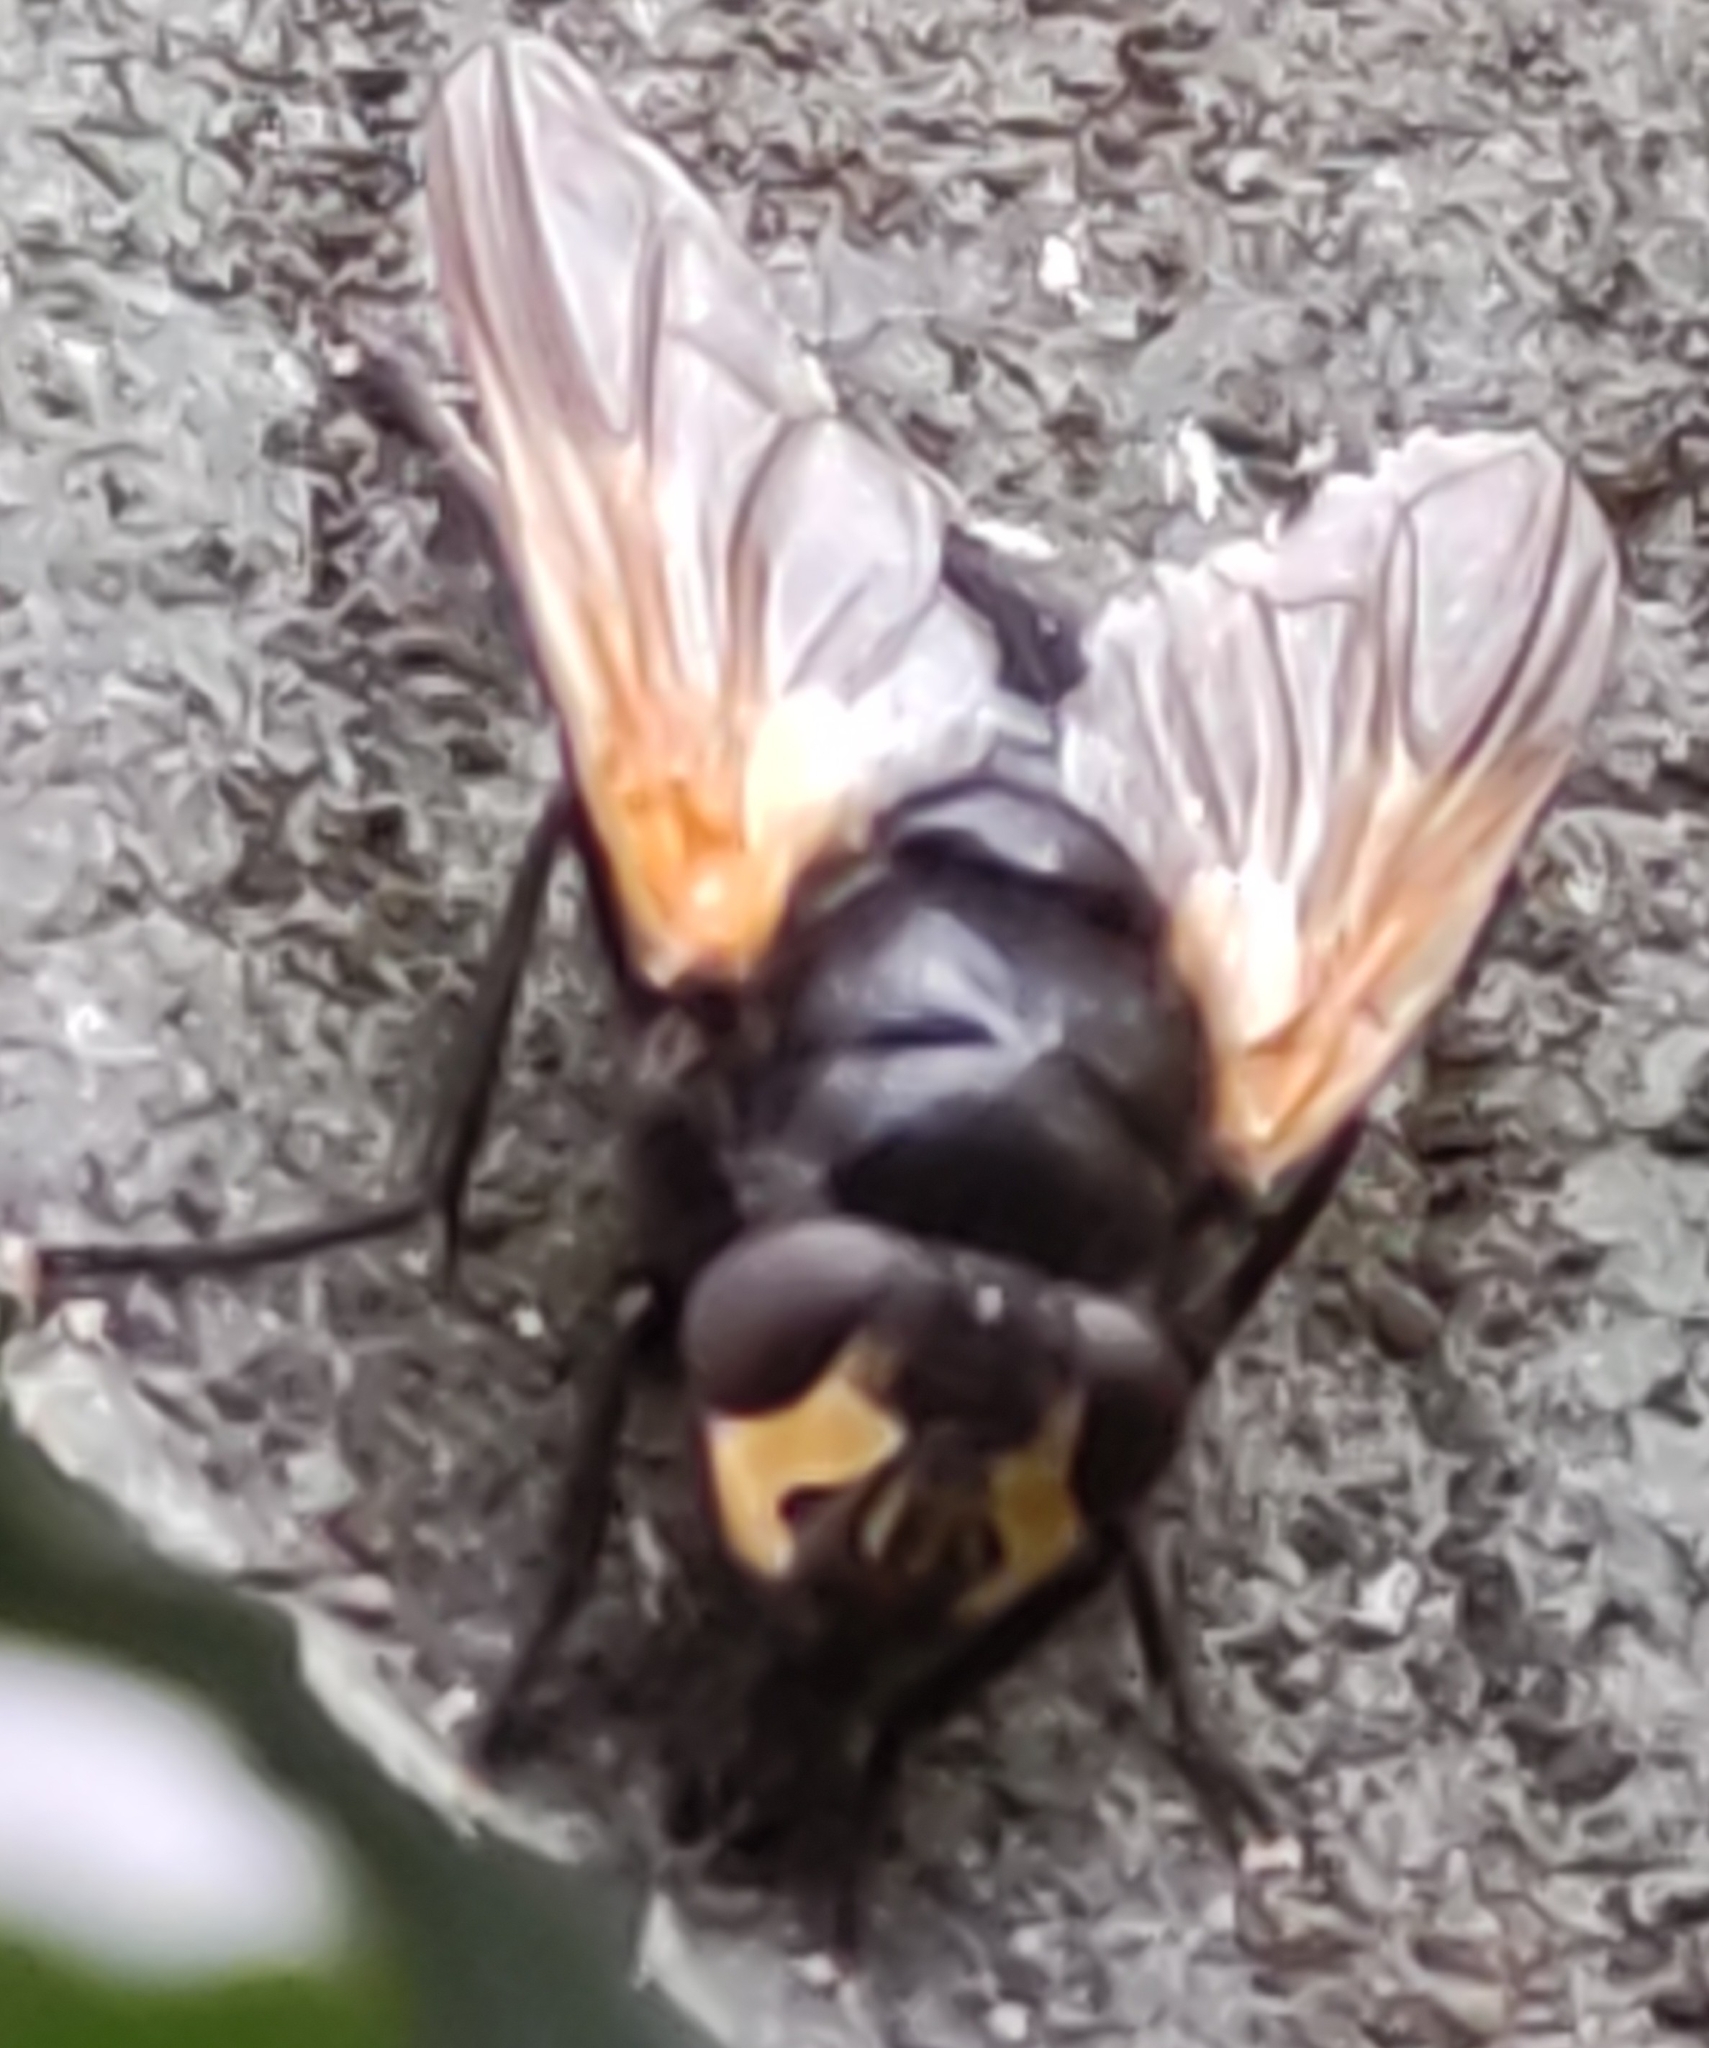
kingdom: Animalia
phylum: Arthropoda
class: Insecta
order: Diptera
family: Muscidae
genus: Mesembrina
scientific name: Mesembrina meridiana
